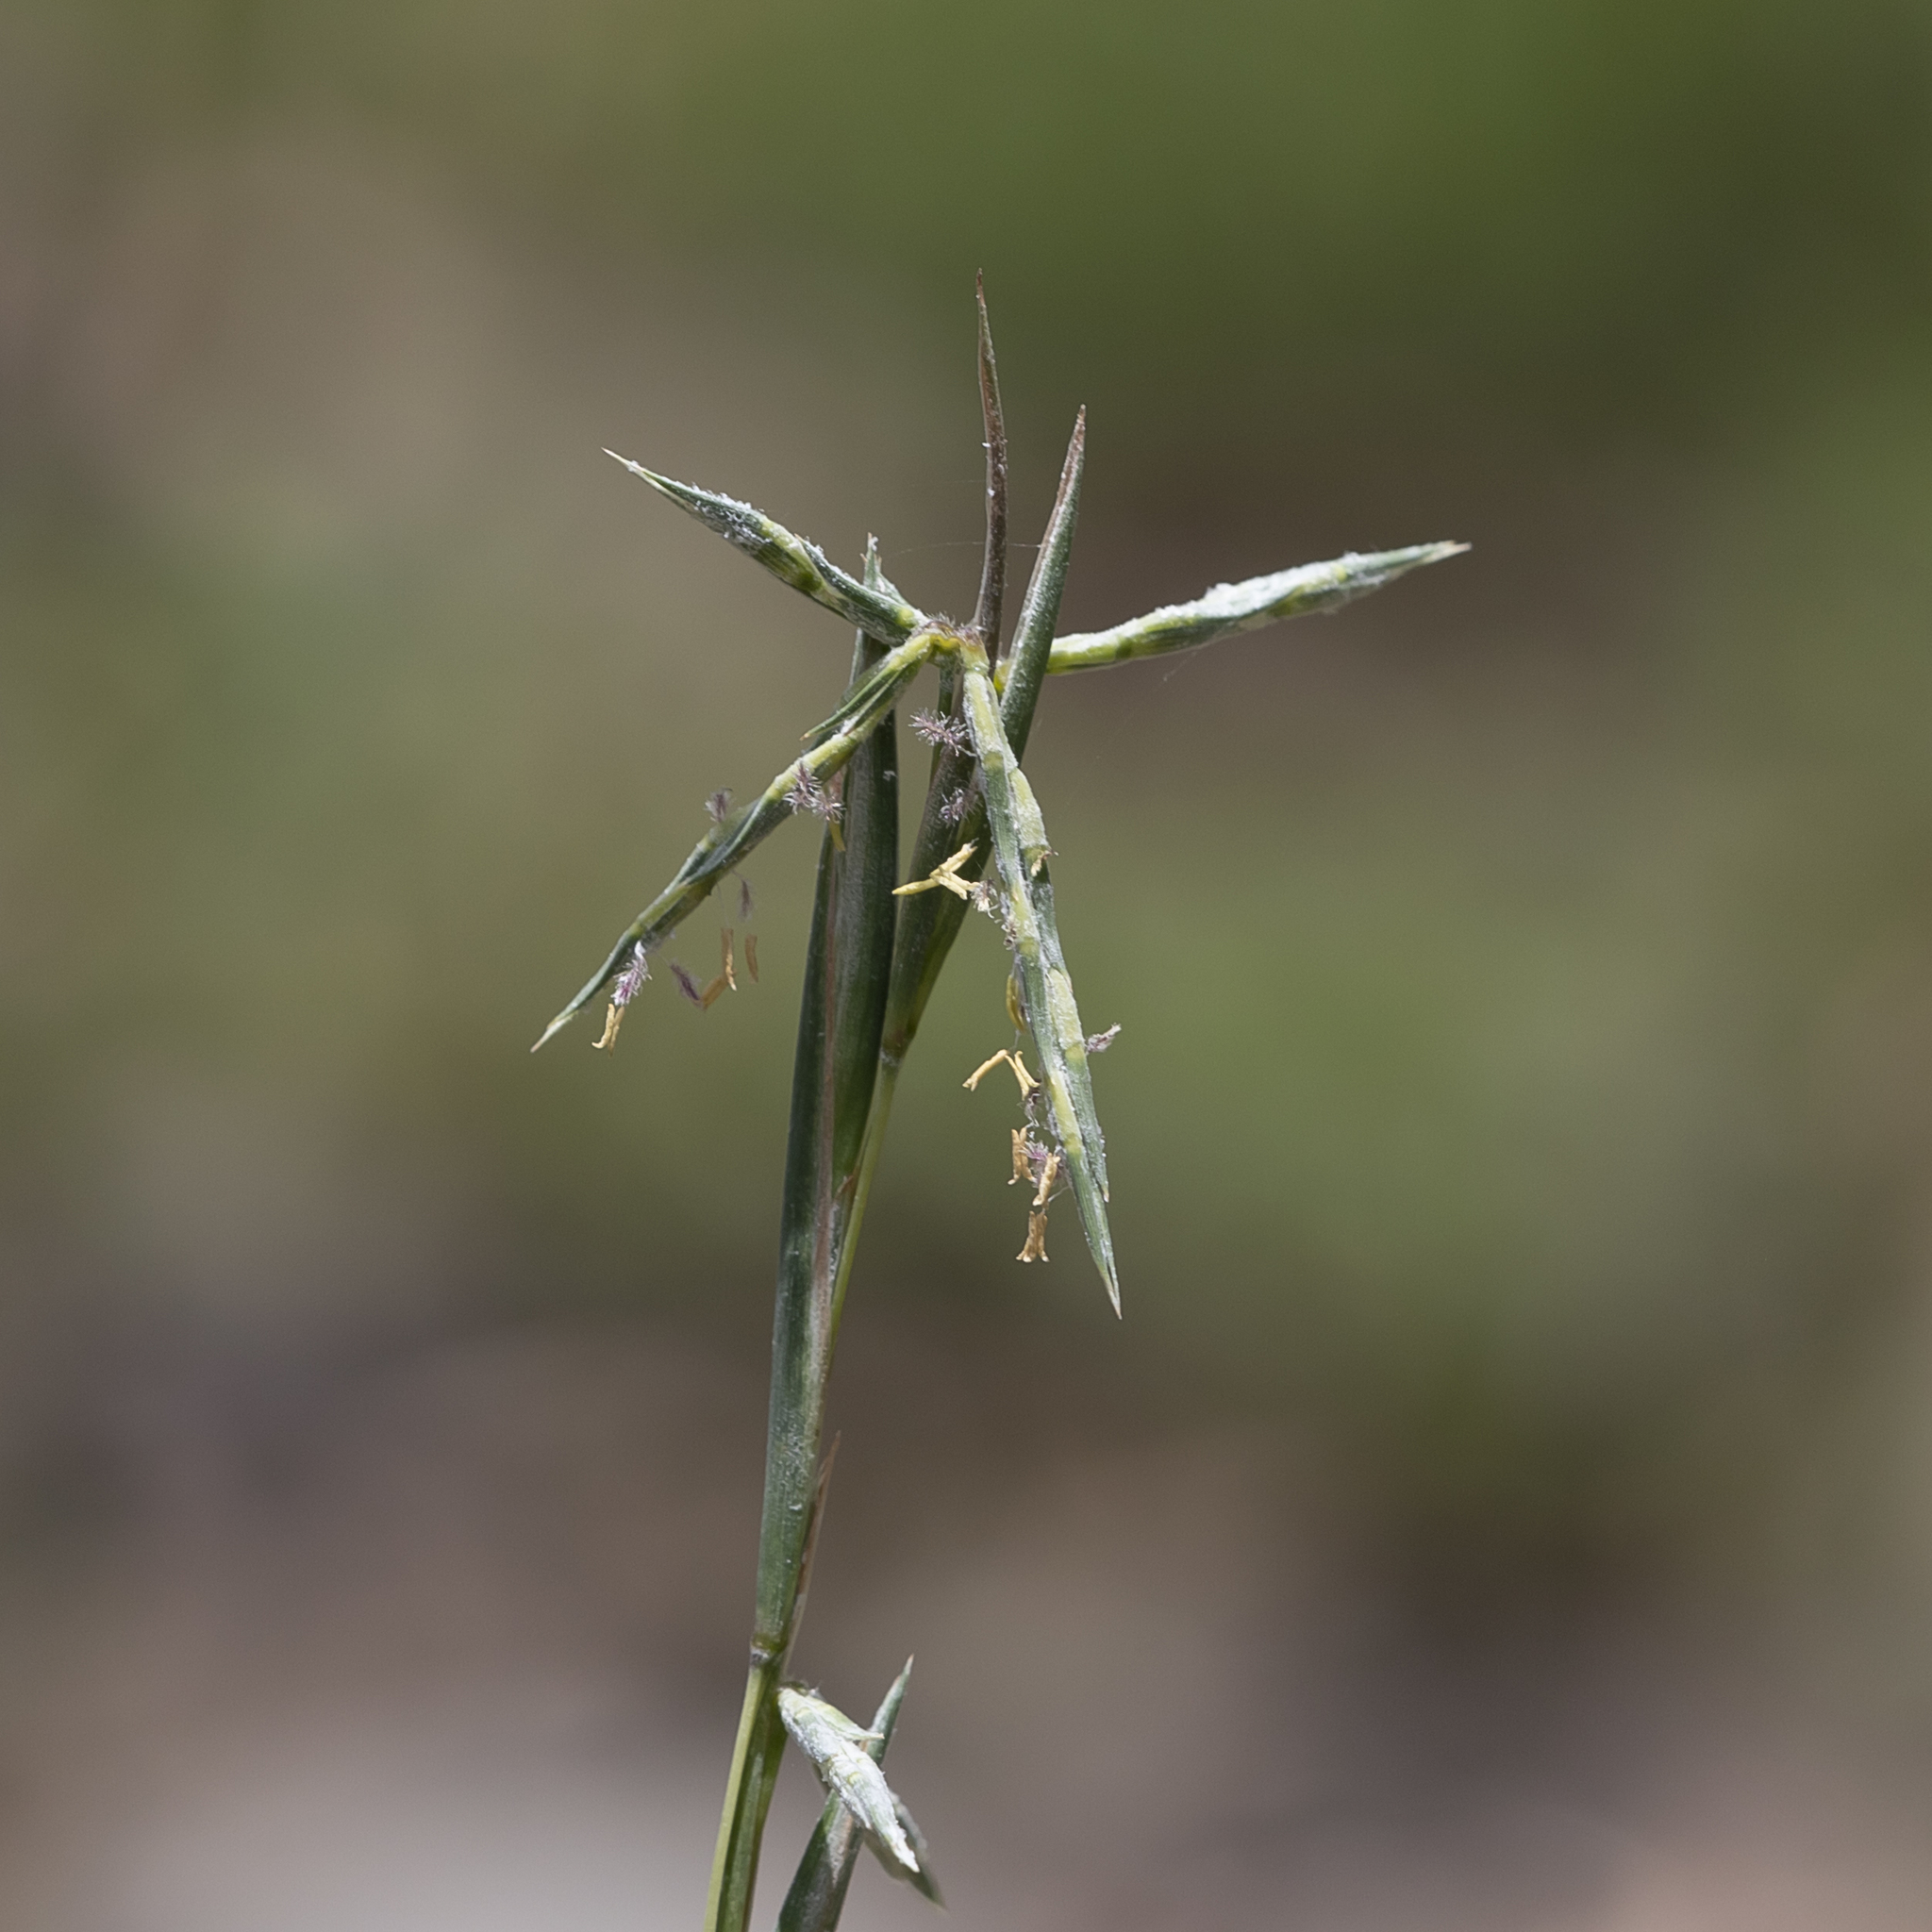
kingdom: Plantae
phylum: Tracheophyta
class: Liliopsida
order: Poales
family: Poaceae
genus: Cymbopogon
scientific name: Cymbopogon refractus
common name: Barbwire grass
